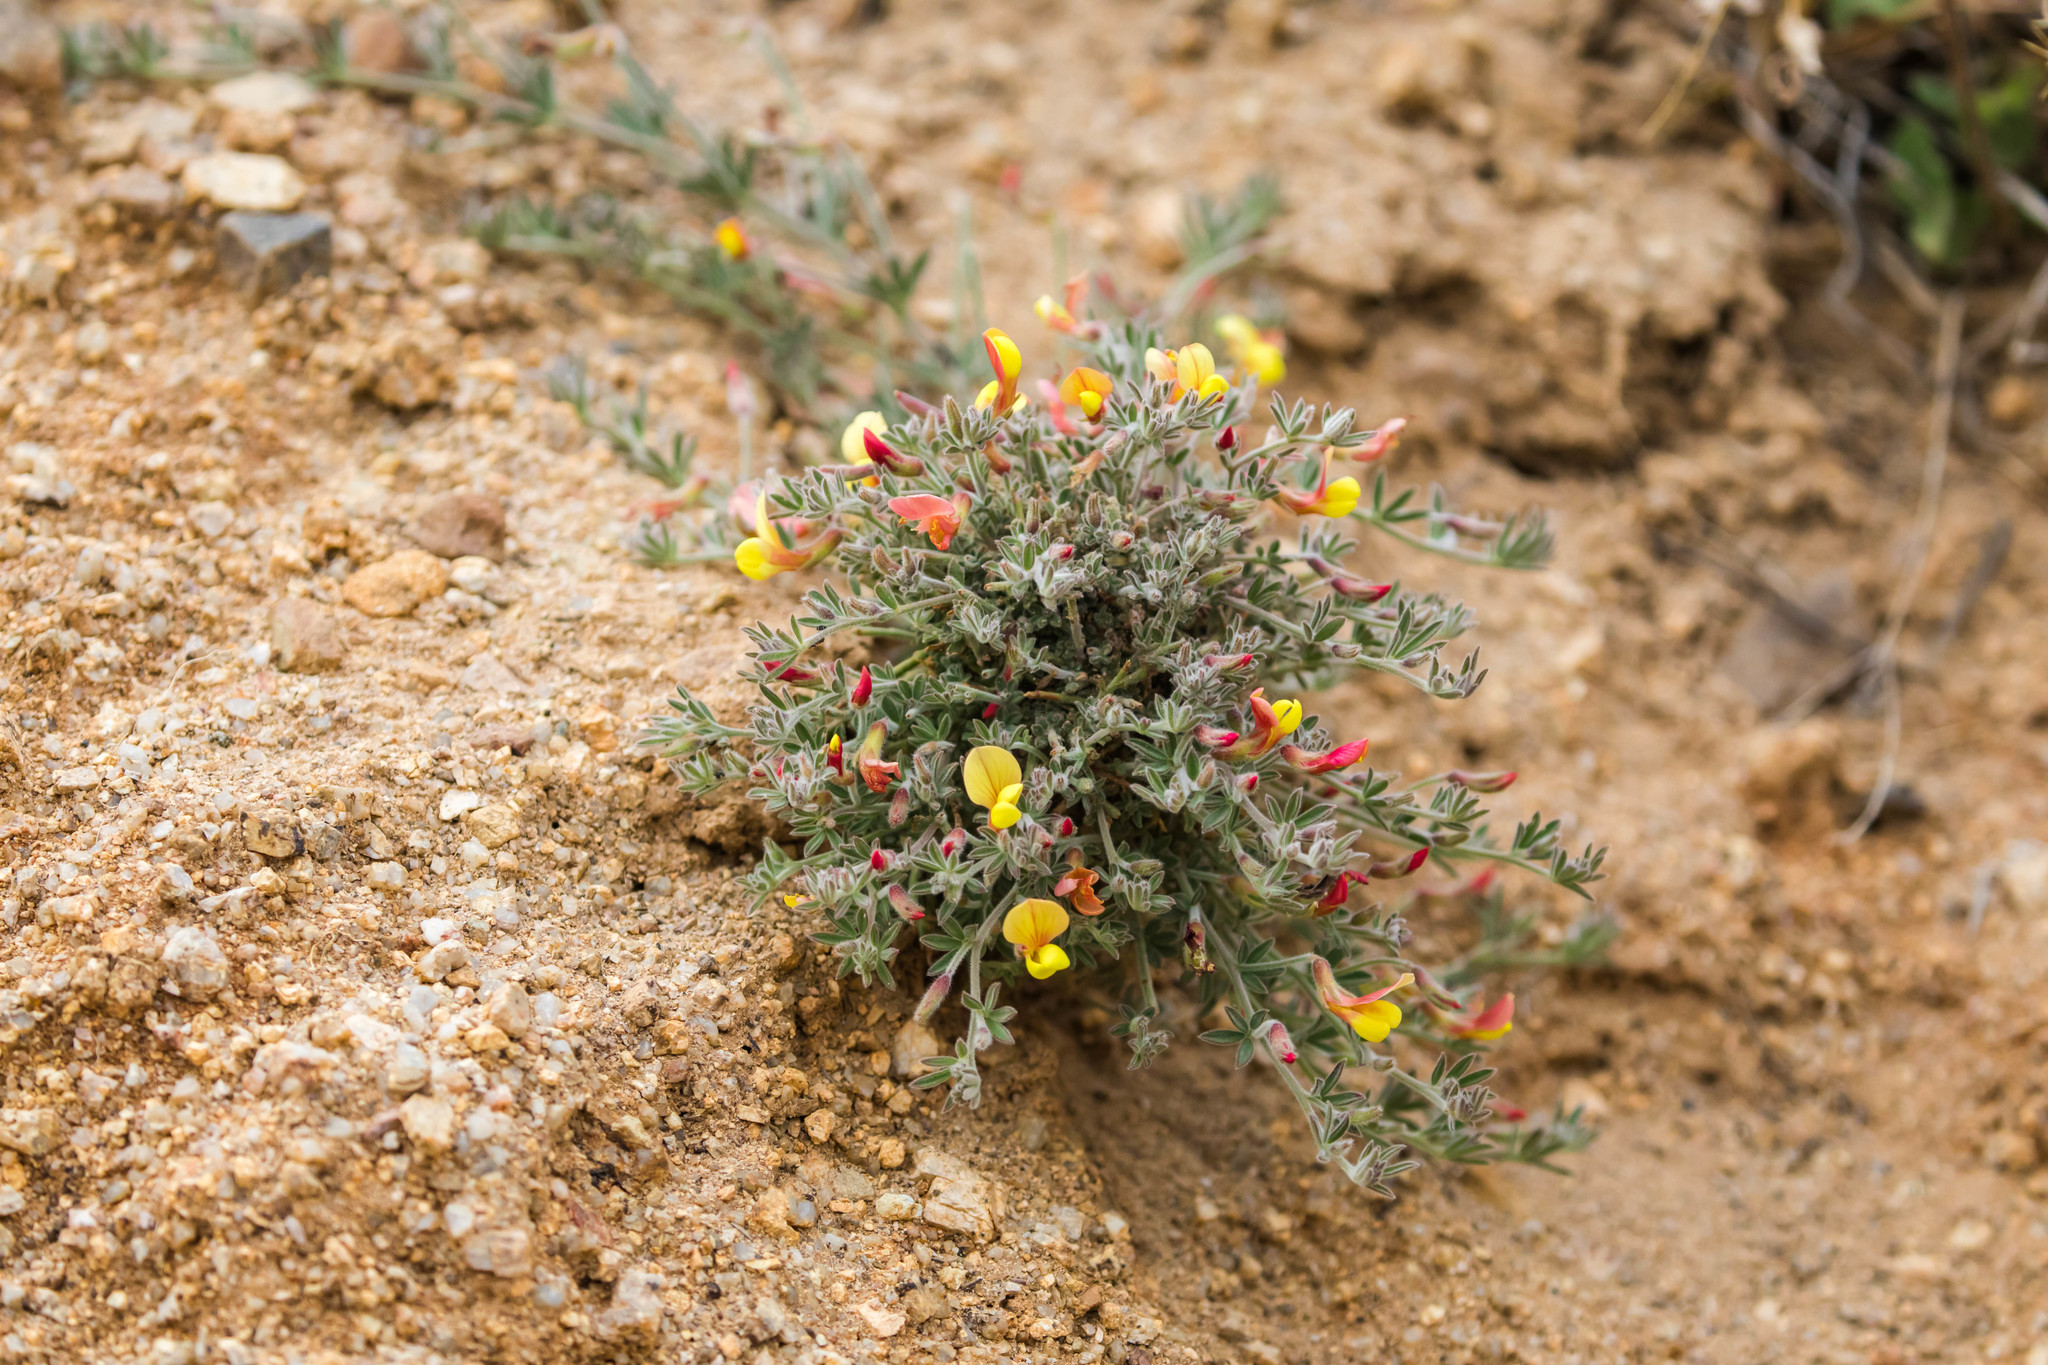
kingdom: Plantae
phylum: Tracheophyta
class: Magnoliopsida
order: Fabales
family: Fabaceae
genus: Acmispon
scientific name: Acmispon neomexicanus
